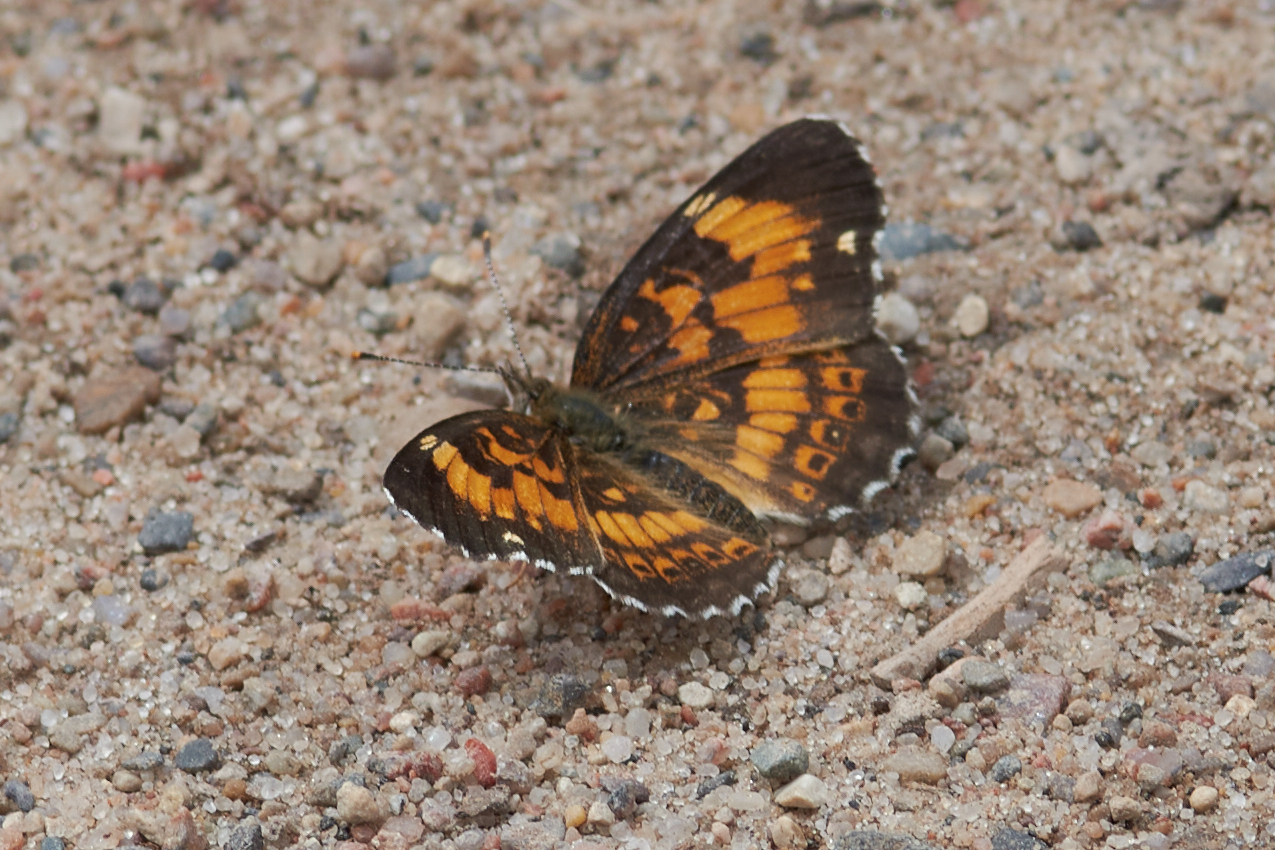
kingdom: Animalia
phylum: Arthropoda
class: Insecta
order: Lepidoptera
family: Nymphalidae
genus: Chlosyne
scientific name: Chlosyne nycteis
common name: Silvery checkerspot
